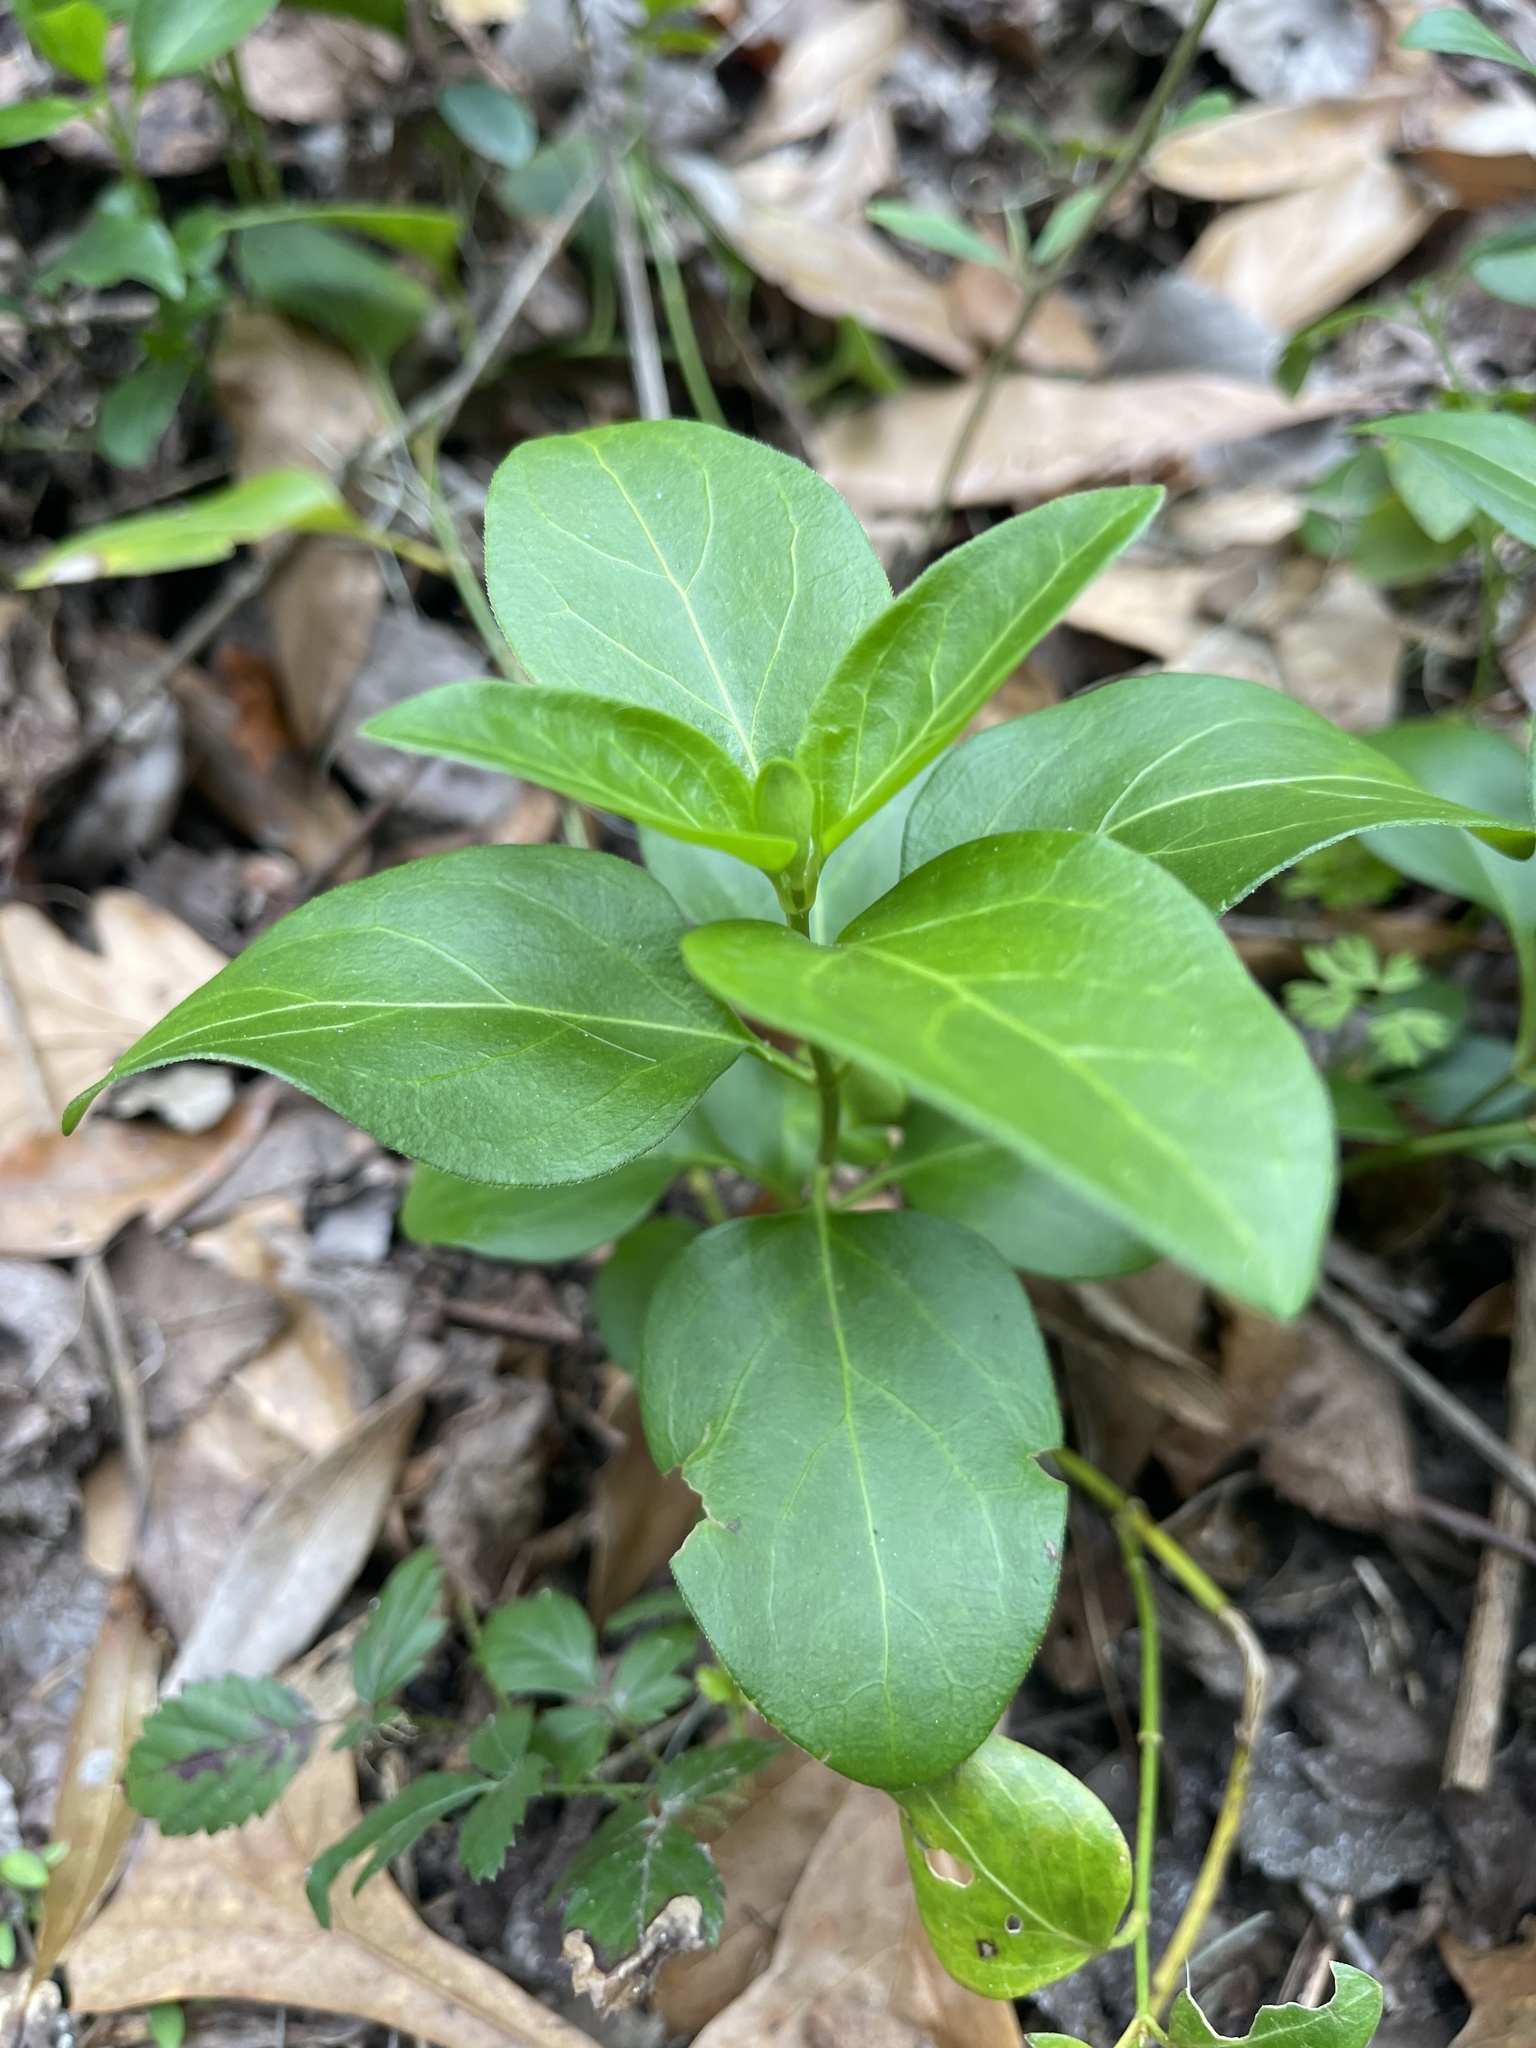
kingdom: Plantae
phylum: Tracheophyta
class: Magnoliopsida
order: Gentianales
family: Apocynaceae
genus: Vinca
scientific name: Vinca major
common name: Greater periwinkle
